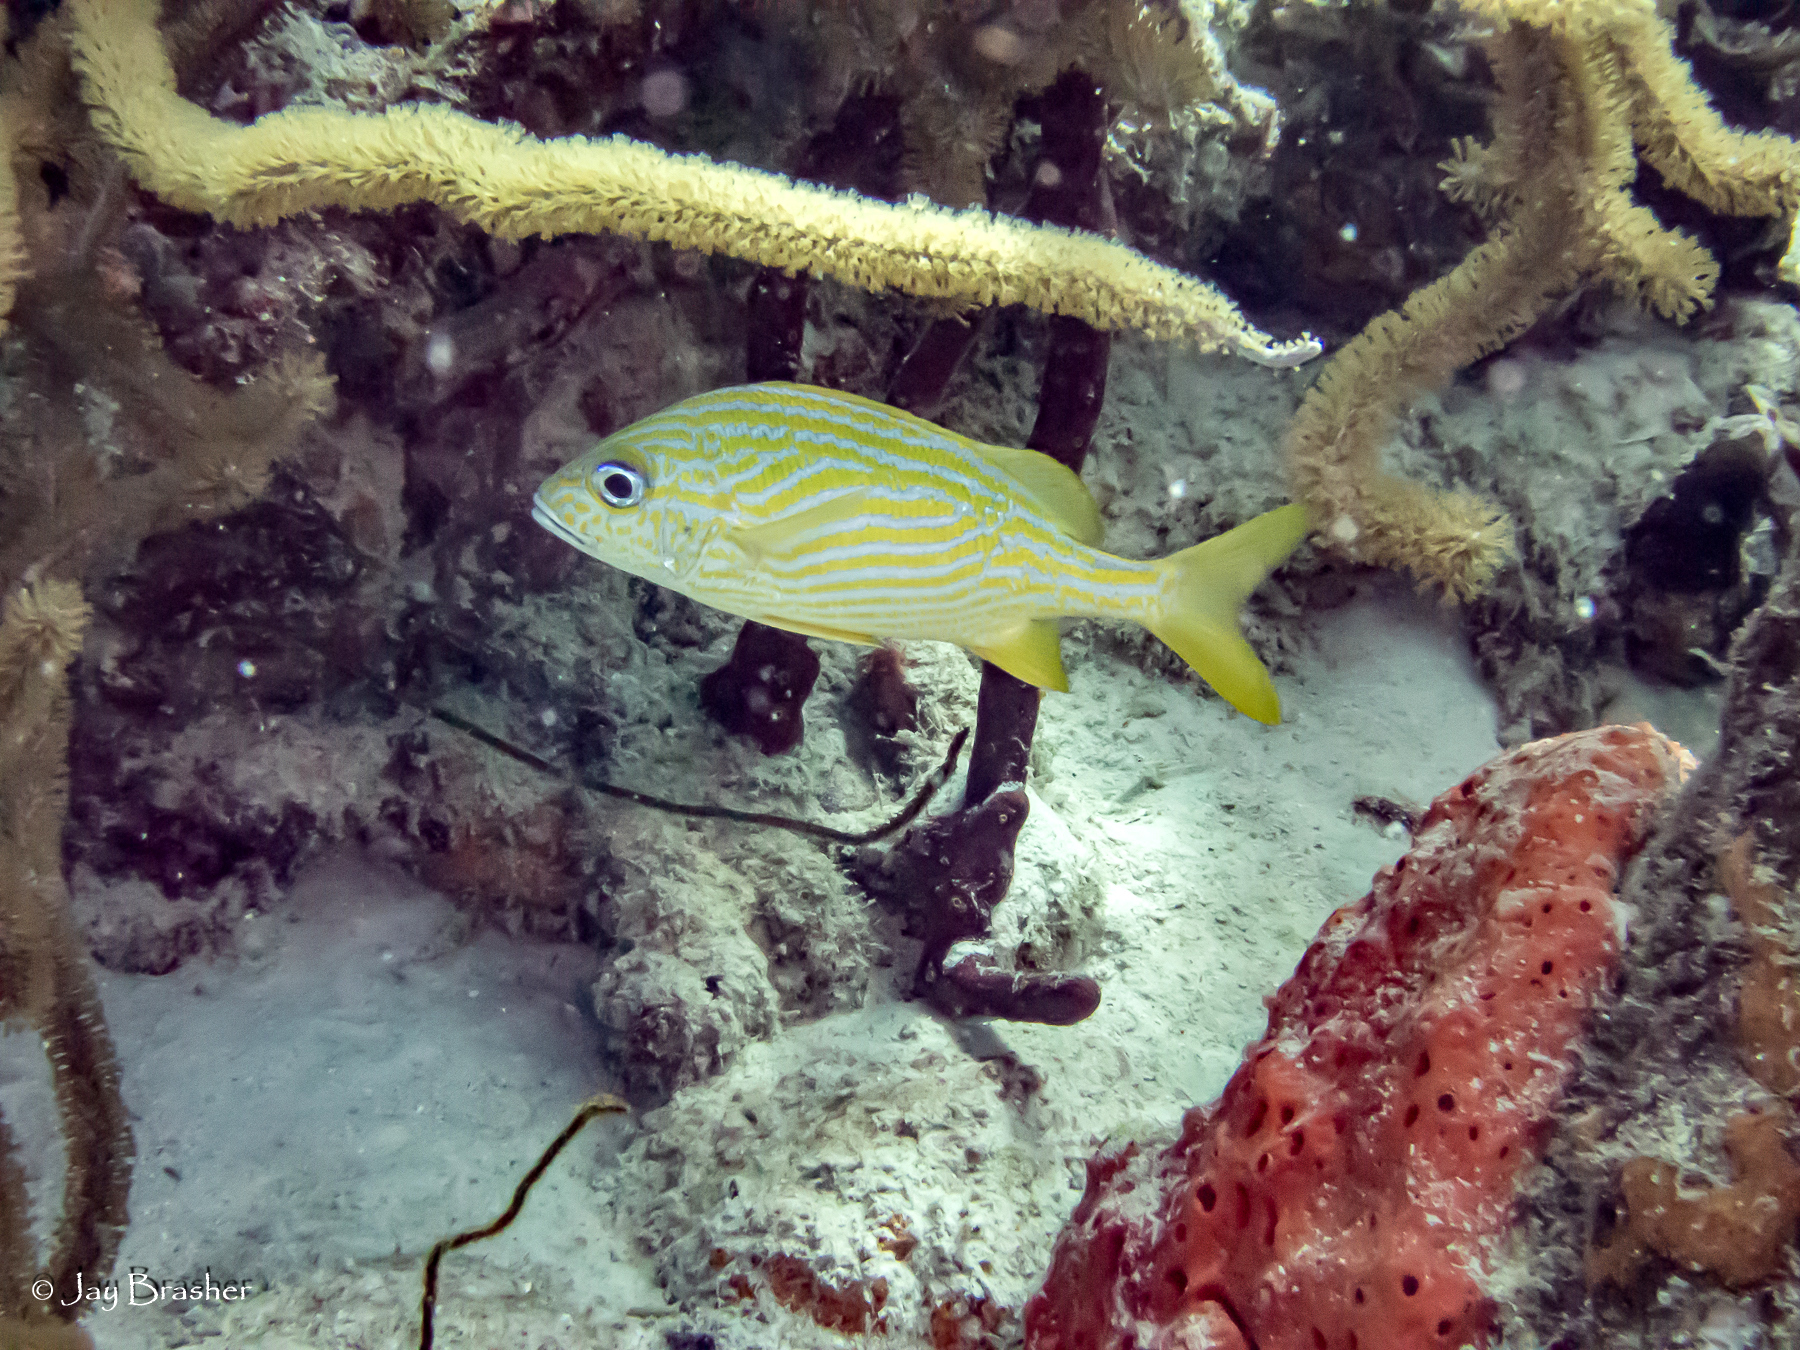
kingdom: Animalia
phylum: Chordata
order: Perciformes
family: Haemulidae
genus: Haemulon
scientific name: Haemulon flavolineatum
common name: French grunt
